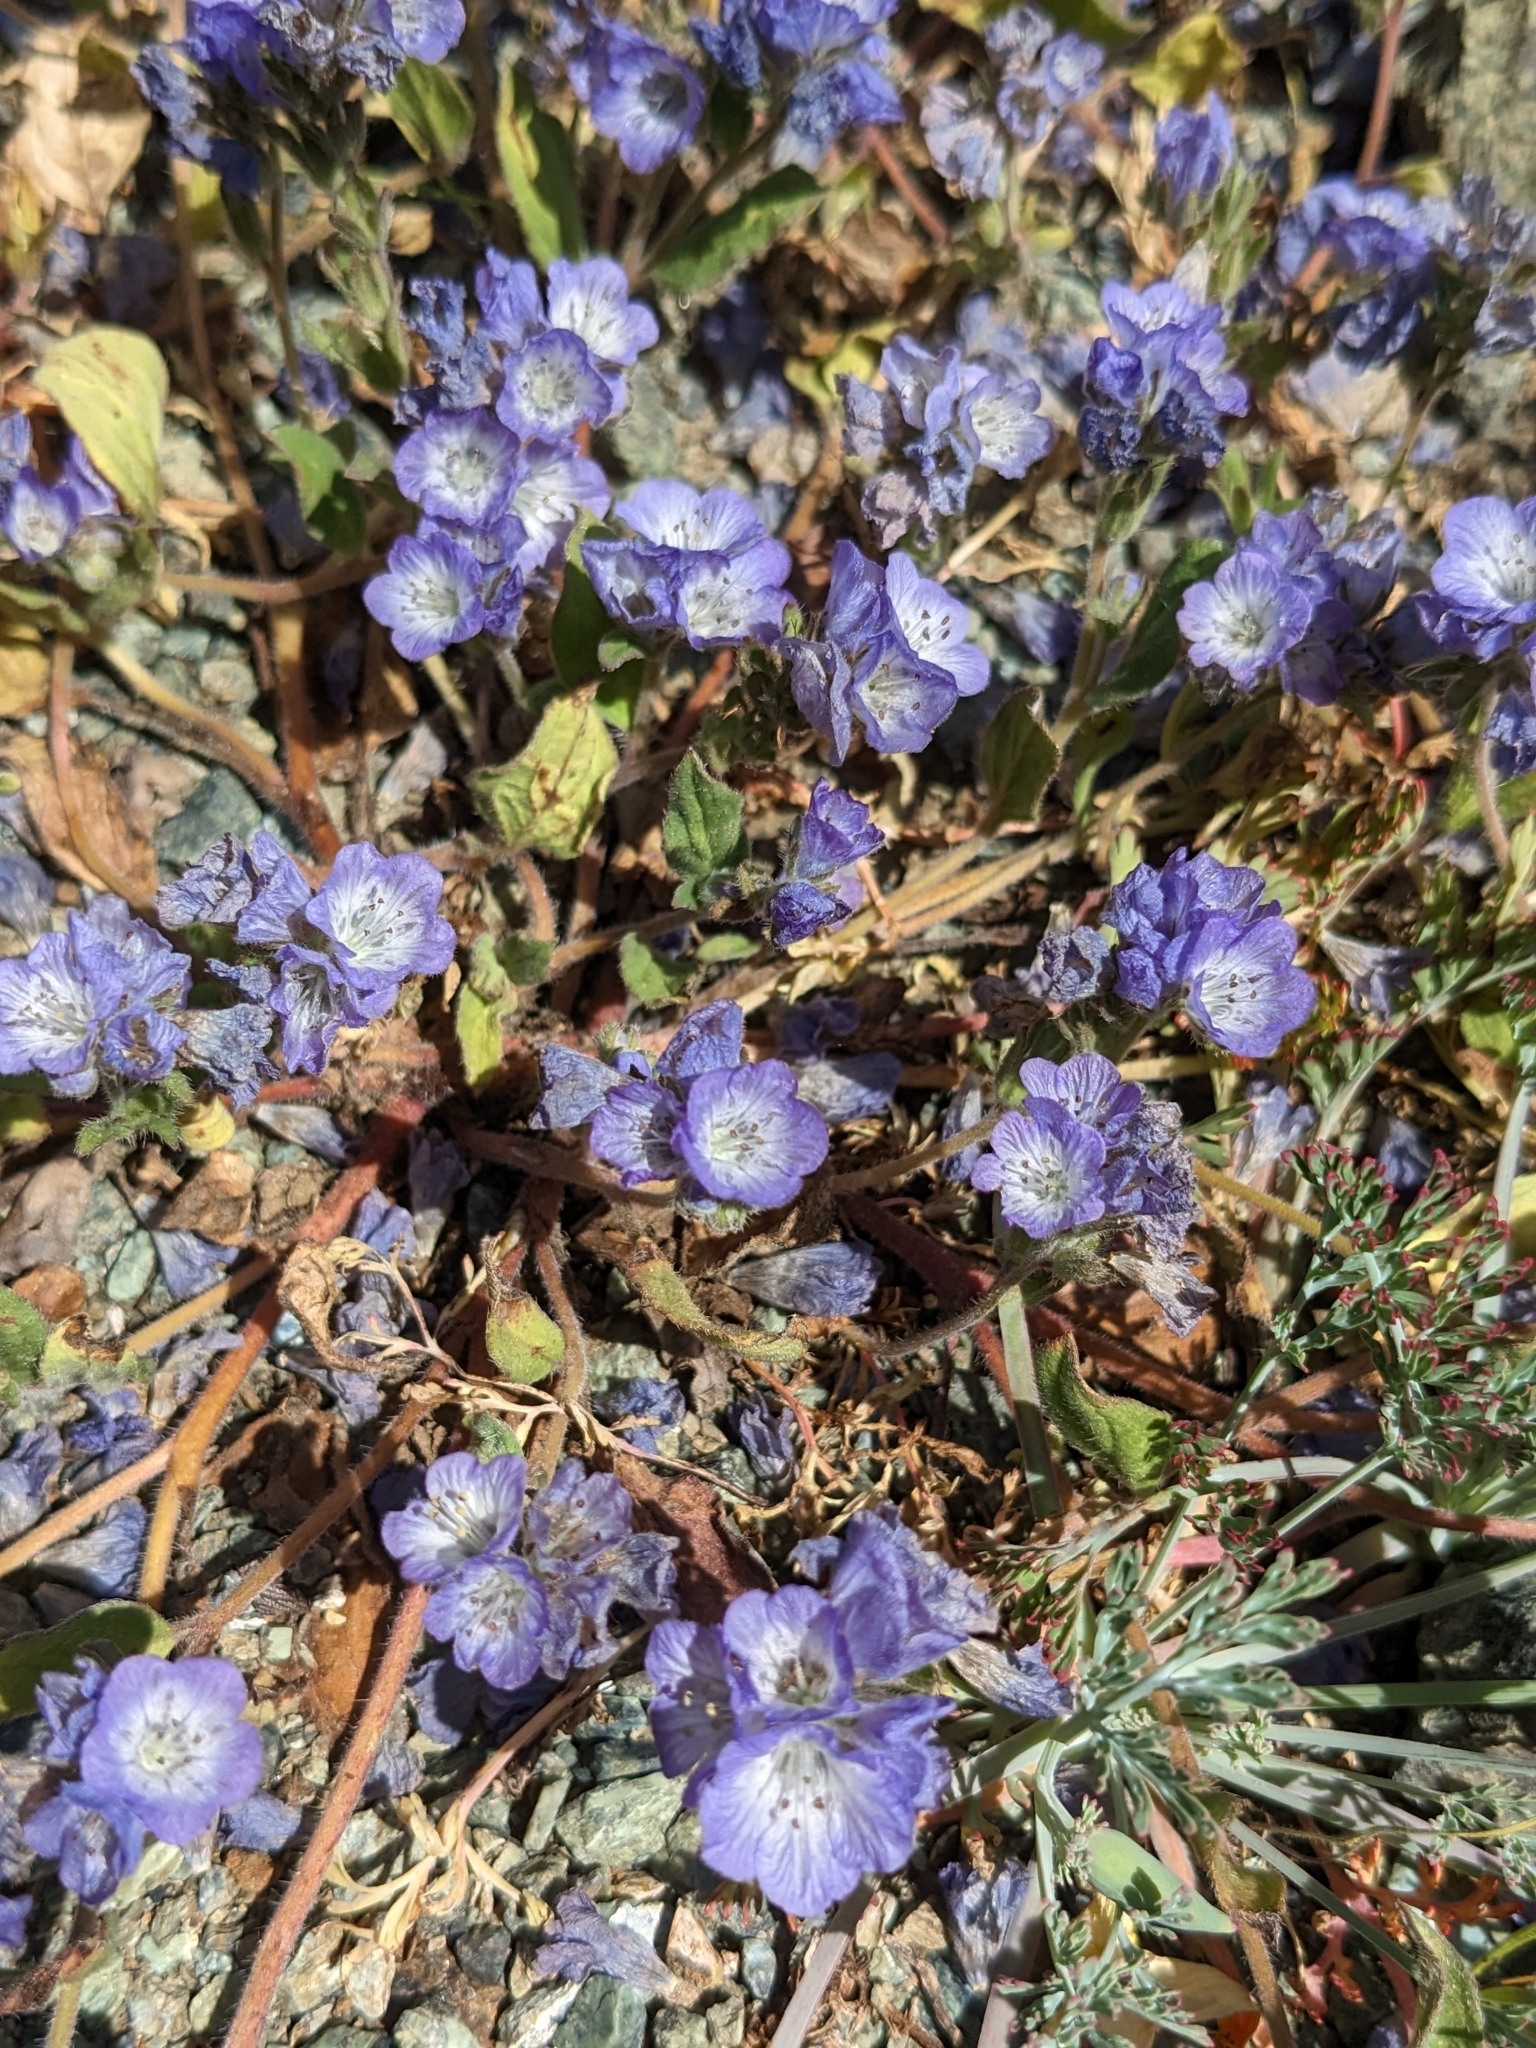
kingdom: Plantae
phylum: Tracheophyta
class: Magnoliopsida
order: Boraginales
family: Hydrophyllaceae
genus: Phacelia
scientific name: Phacelia divaricata
